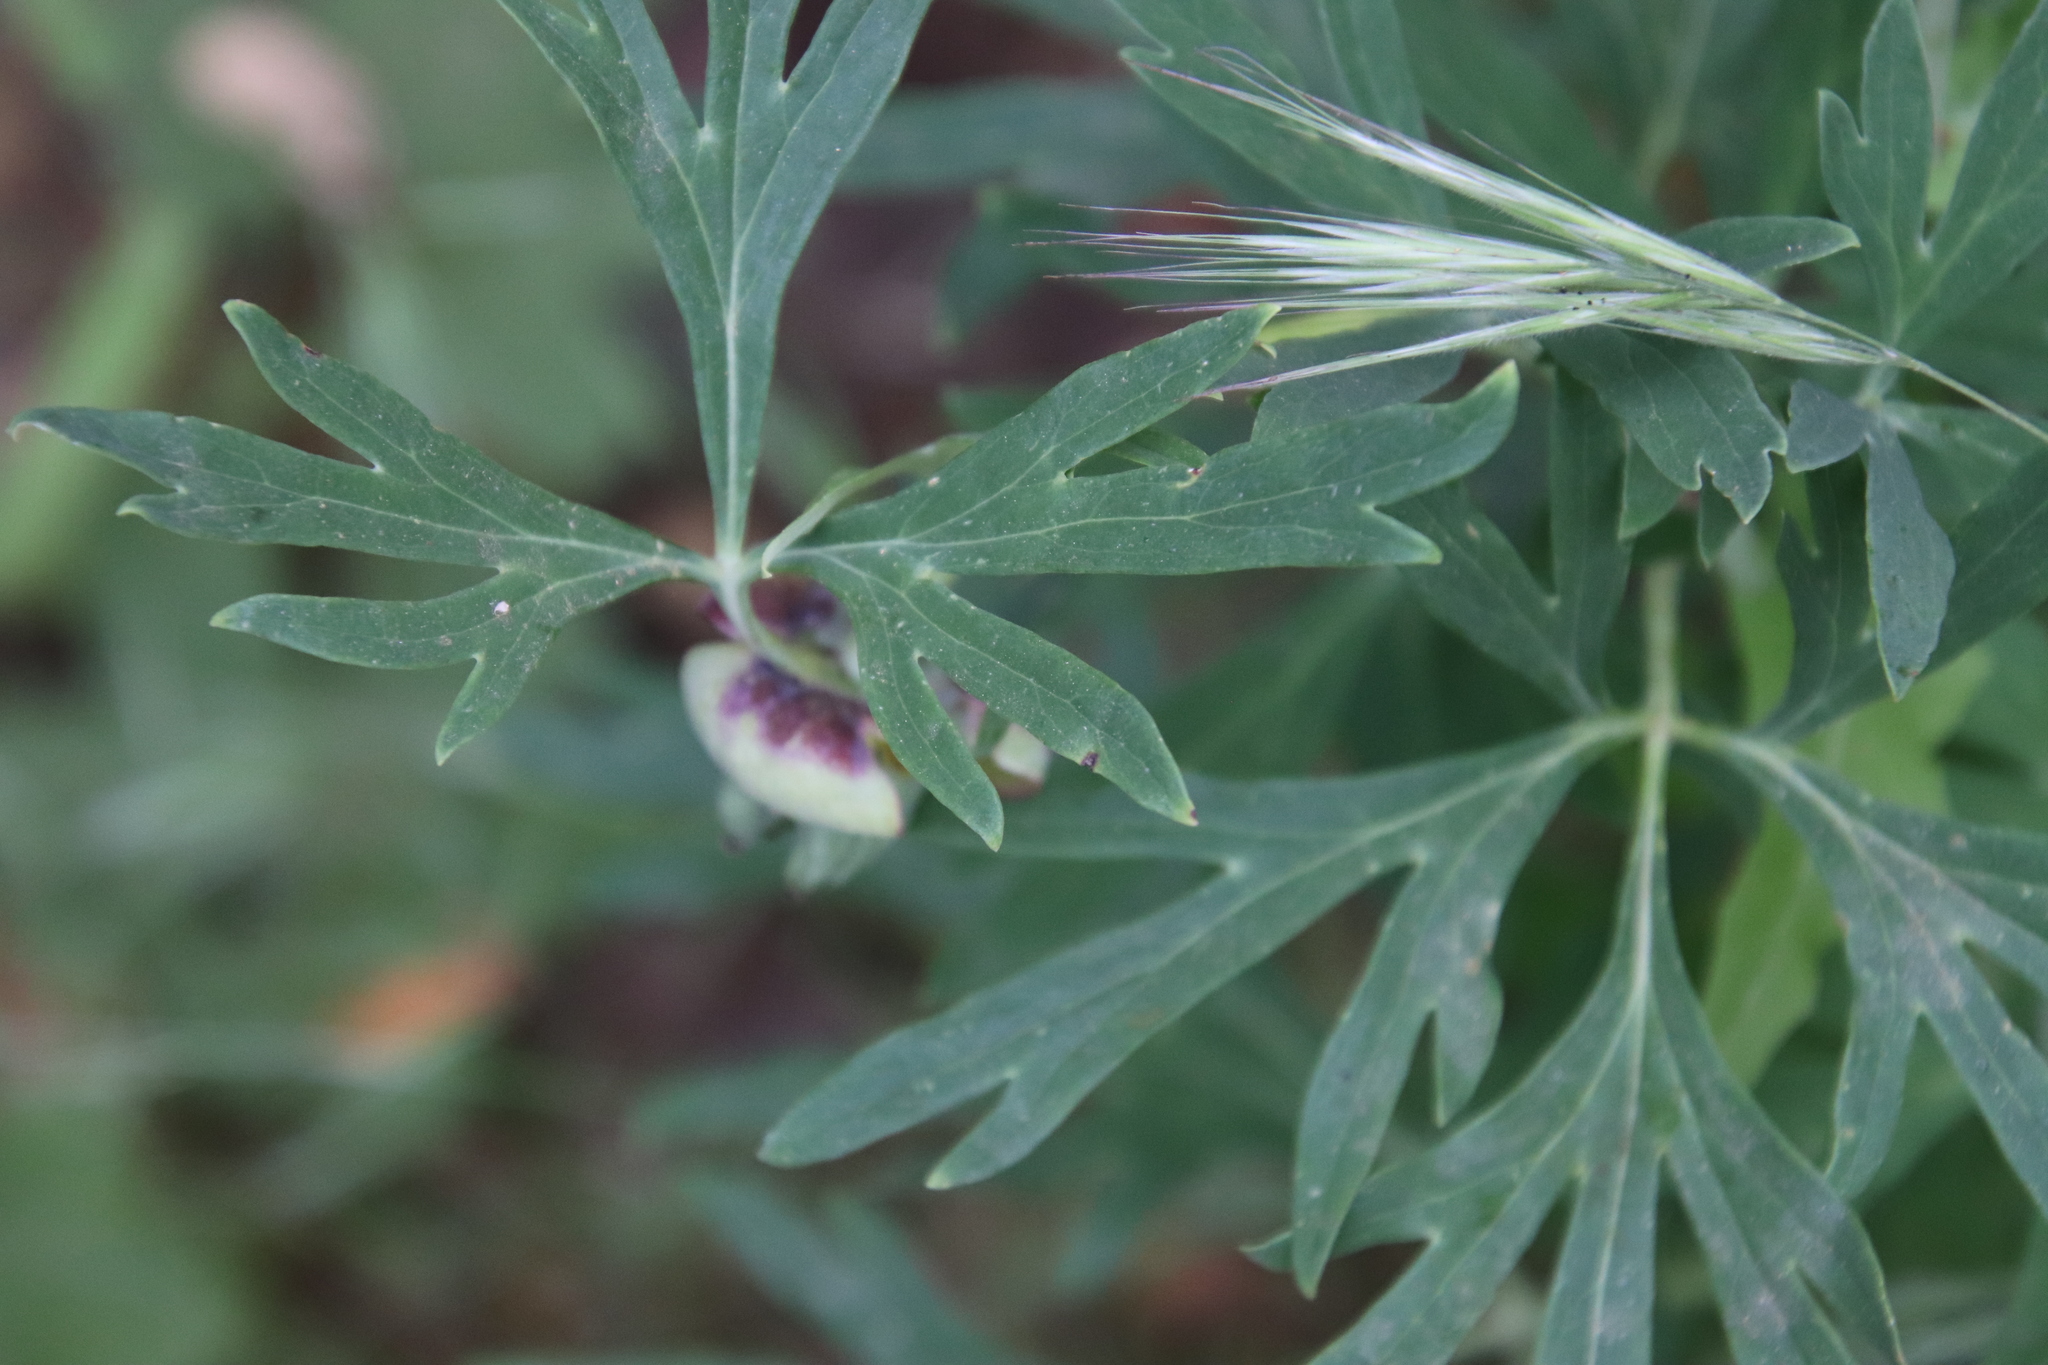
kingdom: Plantae
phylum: Tracheophyta
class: Magnoliopsida
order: Saxifragales
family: Paeoniaceae
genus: Paeonia
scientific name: Paeonia californica
